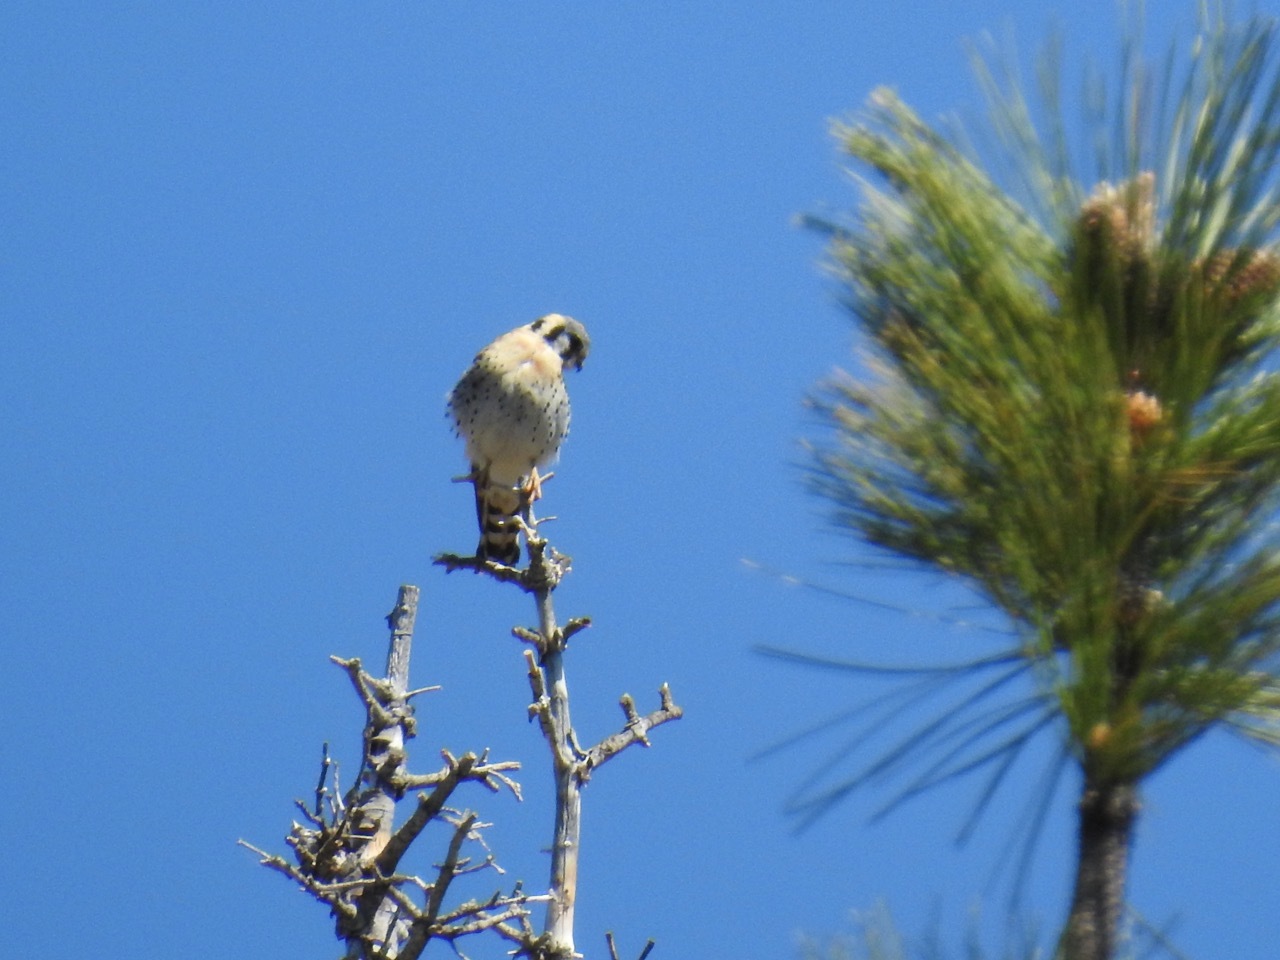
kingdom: Animalia
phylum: Chordata
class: Aves
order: Falconiformes
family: Falconidae
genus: Falco
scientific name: Falco sparverius
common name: American kestrel
